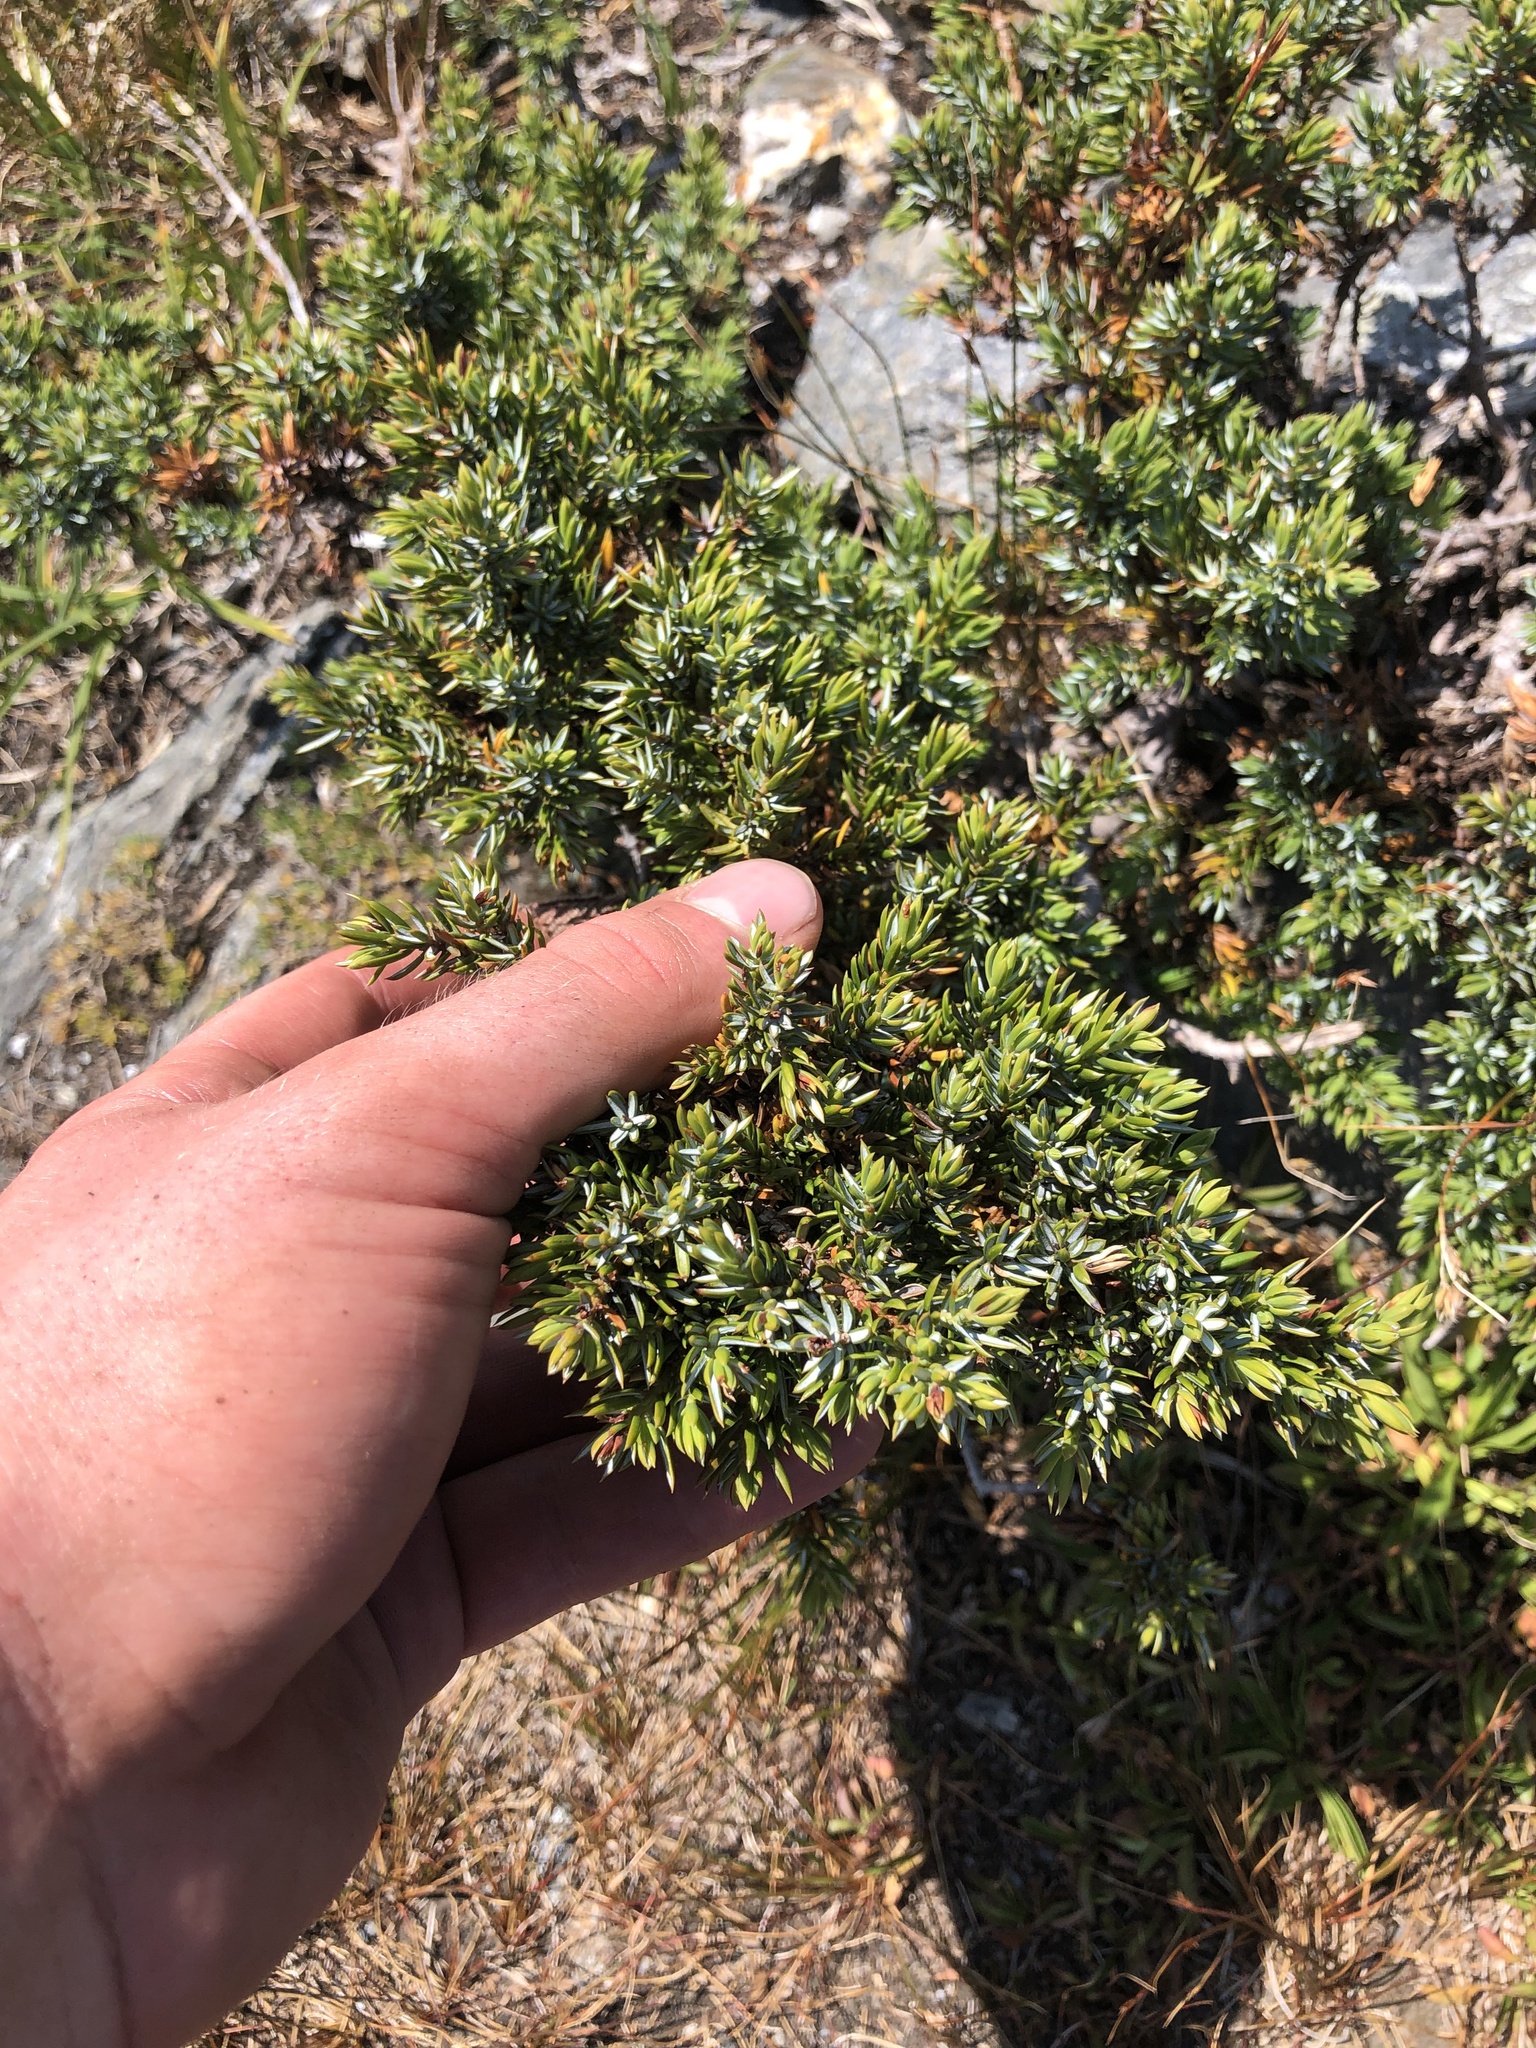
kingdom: Plantae
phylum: Tracheophyta
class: Pinopsida
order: Pinales
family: Cupressaceae
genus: Juniperus
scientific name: Juniperus communis
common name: Common juniper
